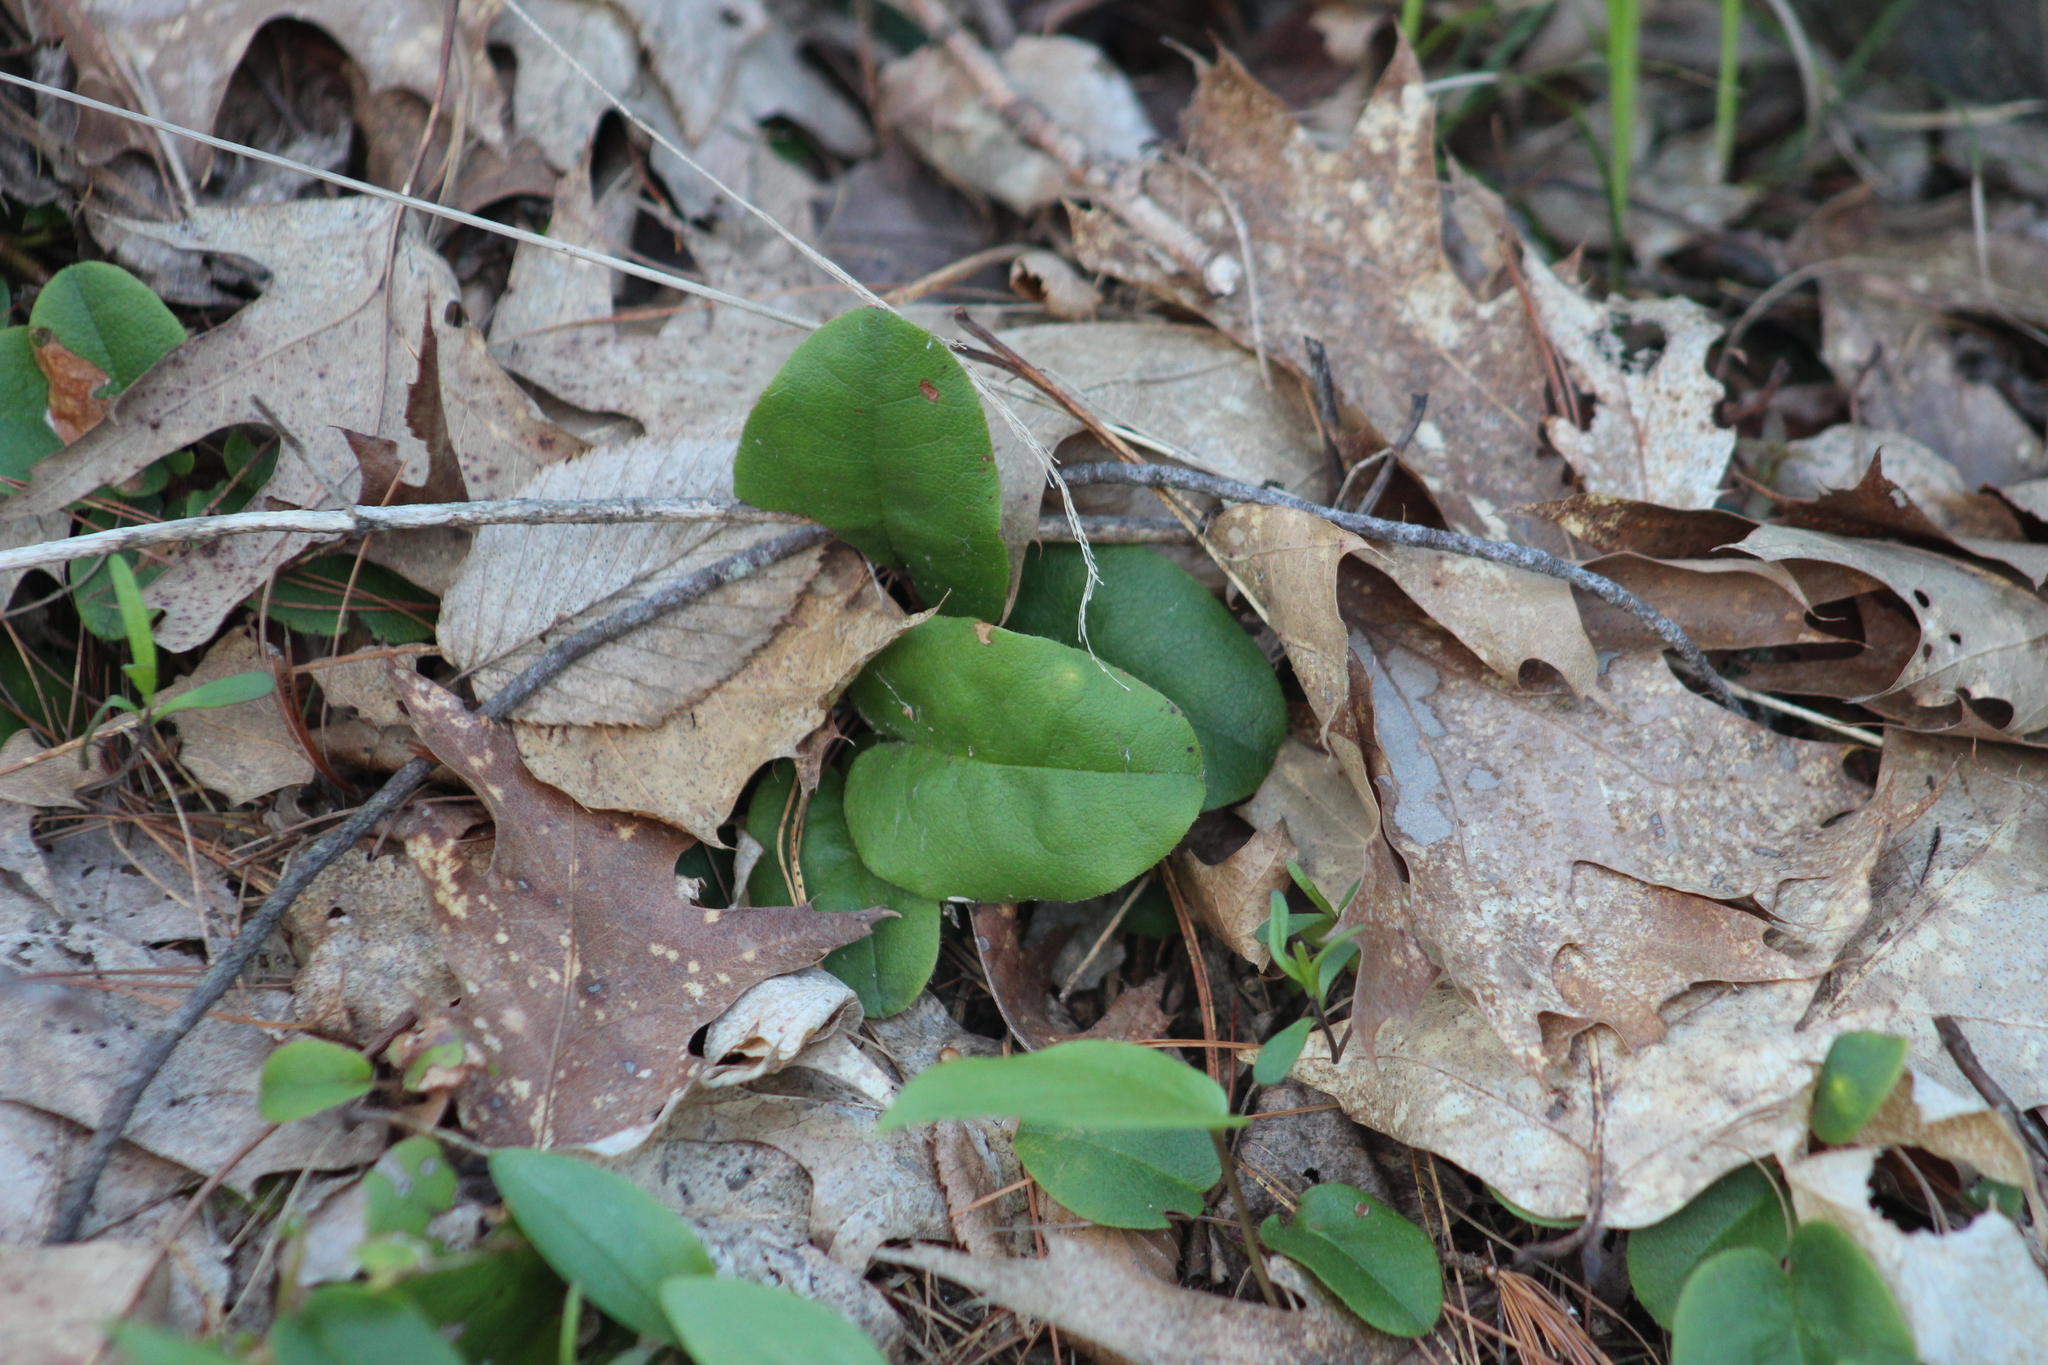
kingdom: Plantae
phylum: Tracheophyta
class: Magnoliopsida
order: Ericales
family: Ericaceae
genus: Epigaea
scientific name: Epigaea repens
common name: Gravelroot
